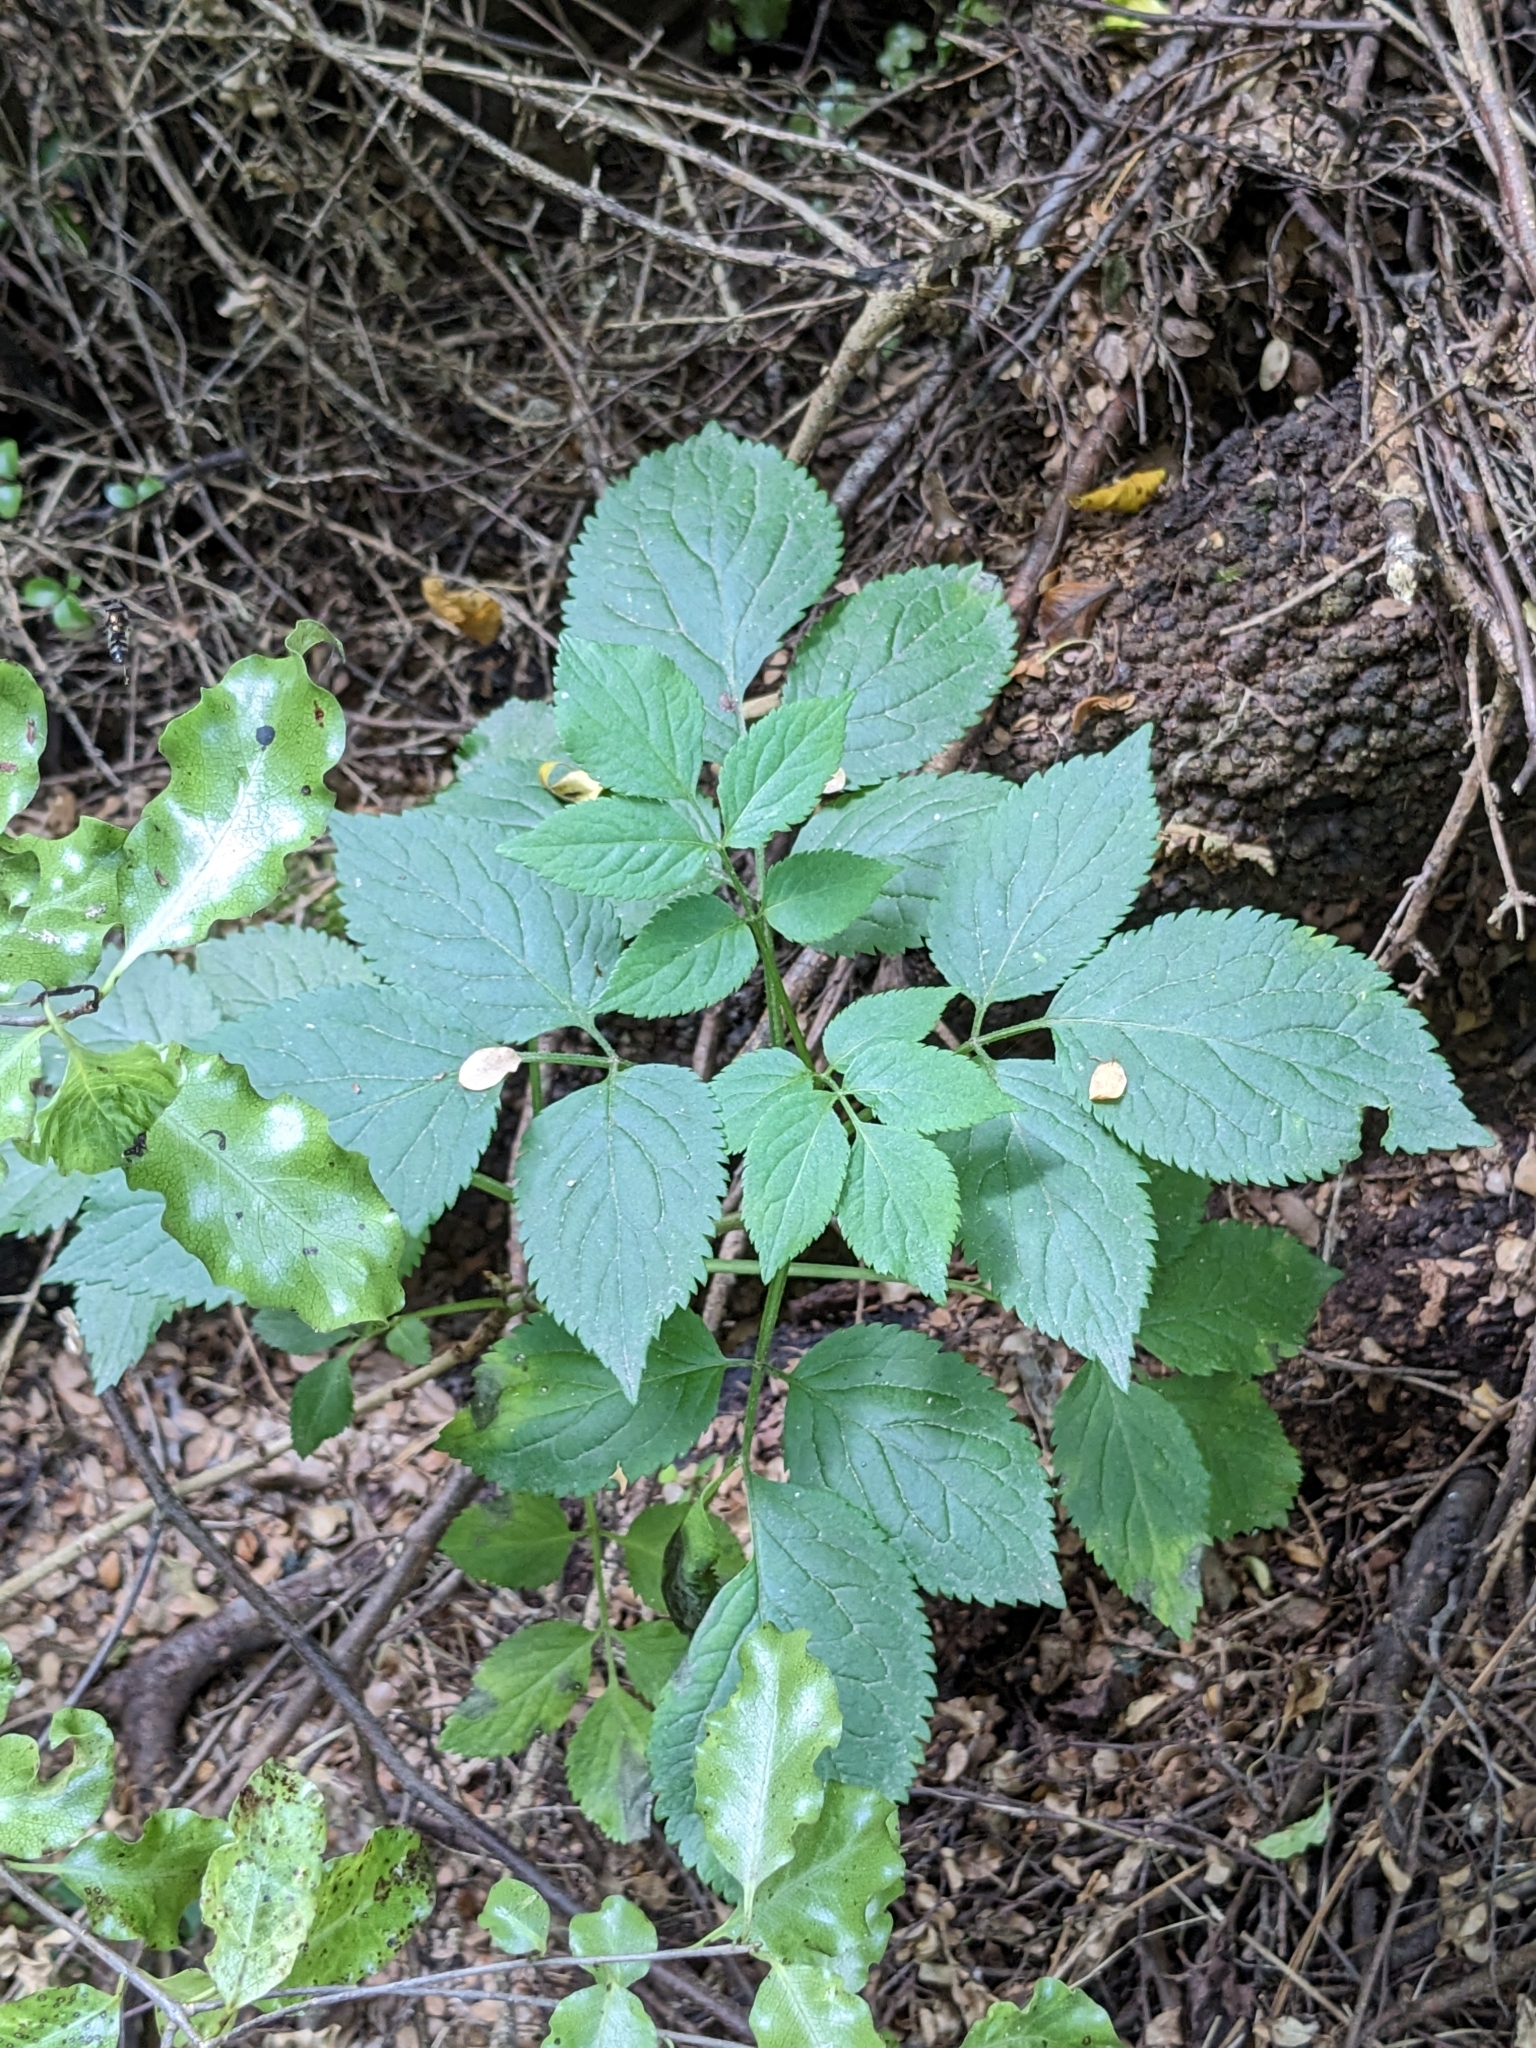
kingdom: Plantae
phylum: Tracheophyta
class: Magnoliopsida
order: Dipsacales
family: Viburnaceae
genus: Sambucus
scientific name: Sambucus nigra
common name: Elder
